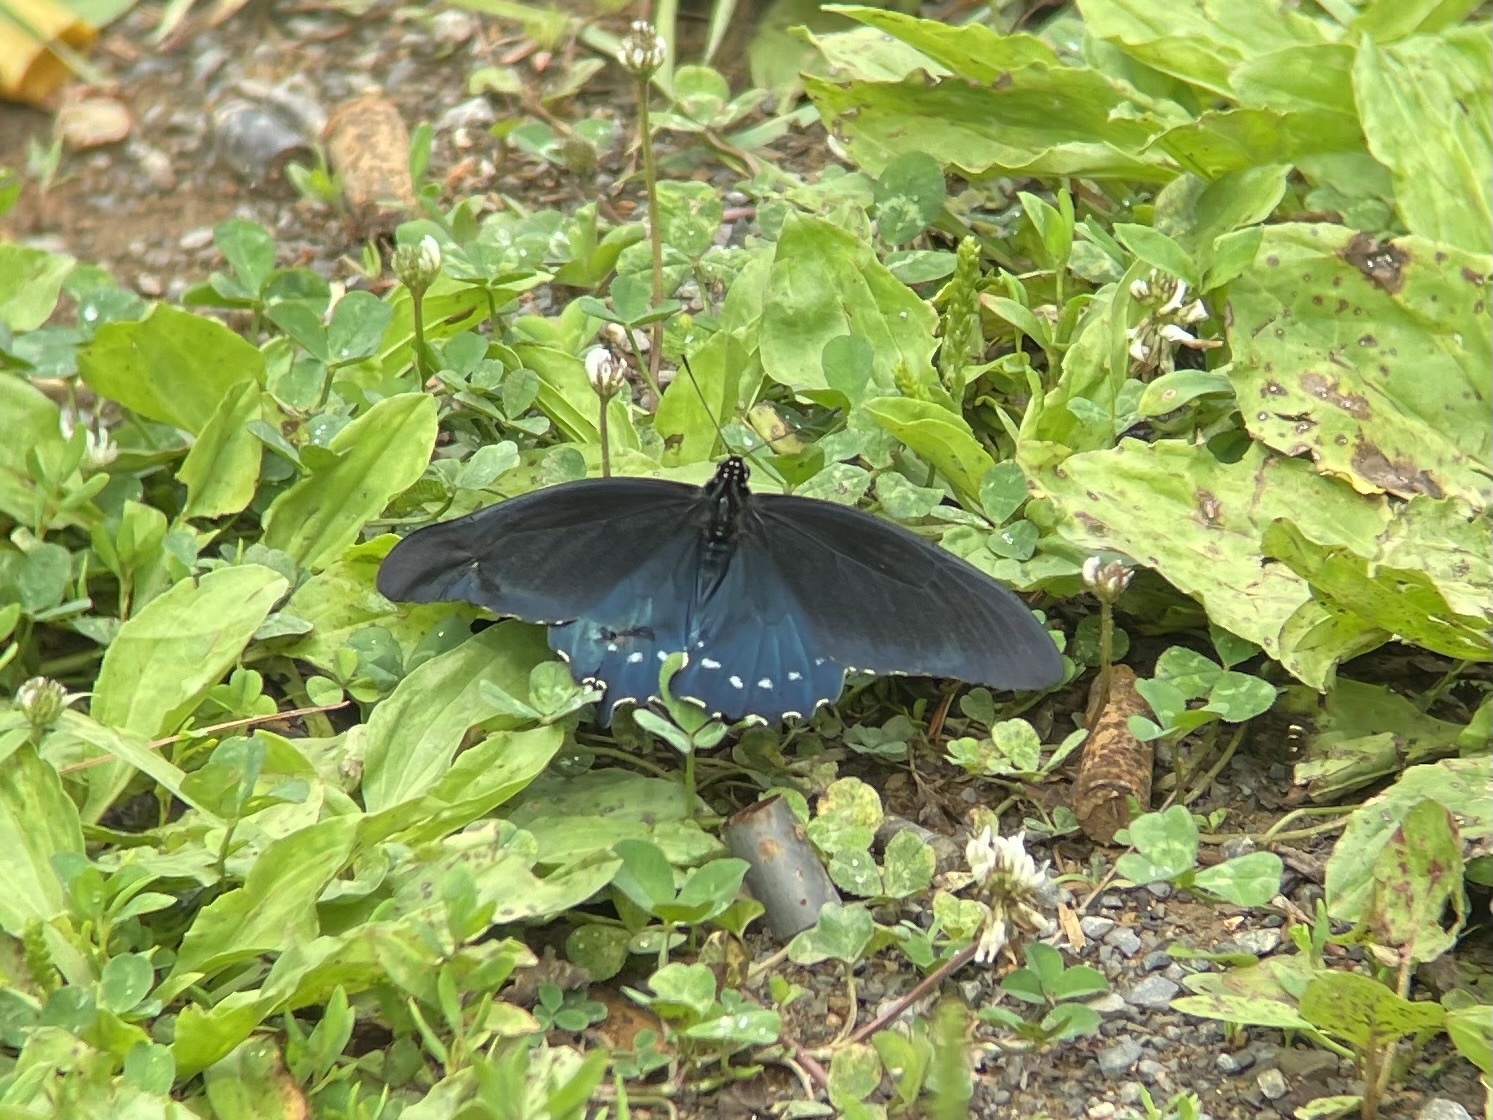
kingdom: Animalia
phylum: Arthropoda
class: Insecta
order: Lepidoptera
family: Papilionidae
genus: Battus
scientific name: Battus philenor
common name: Pipevine swallowtail
